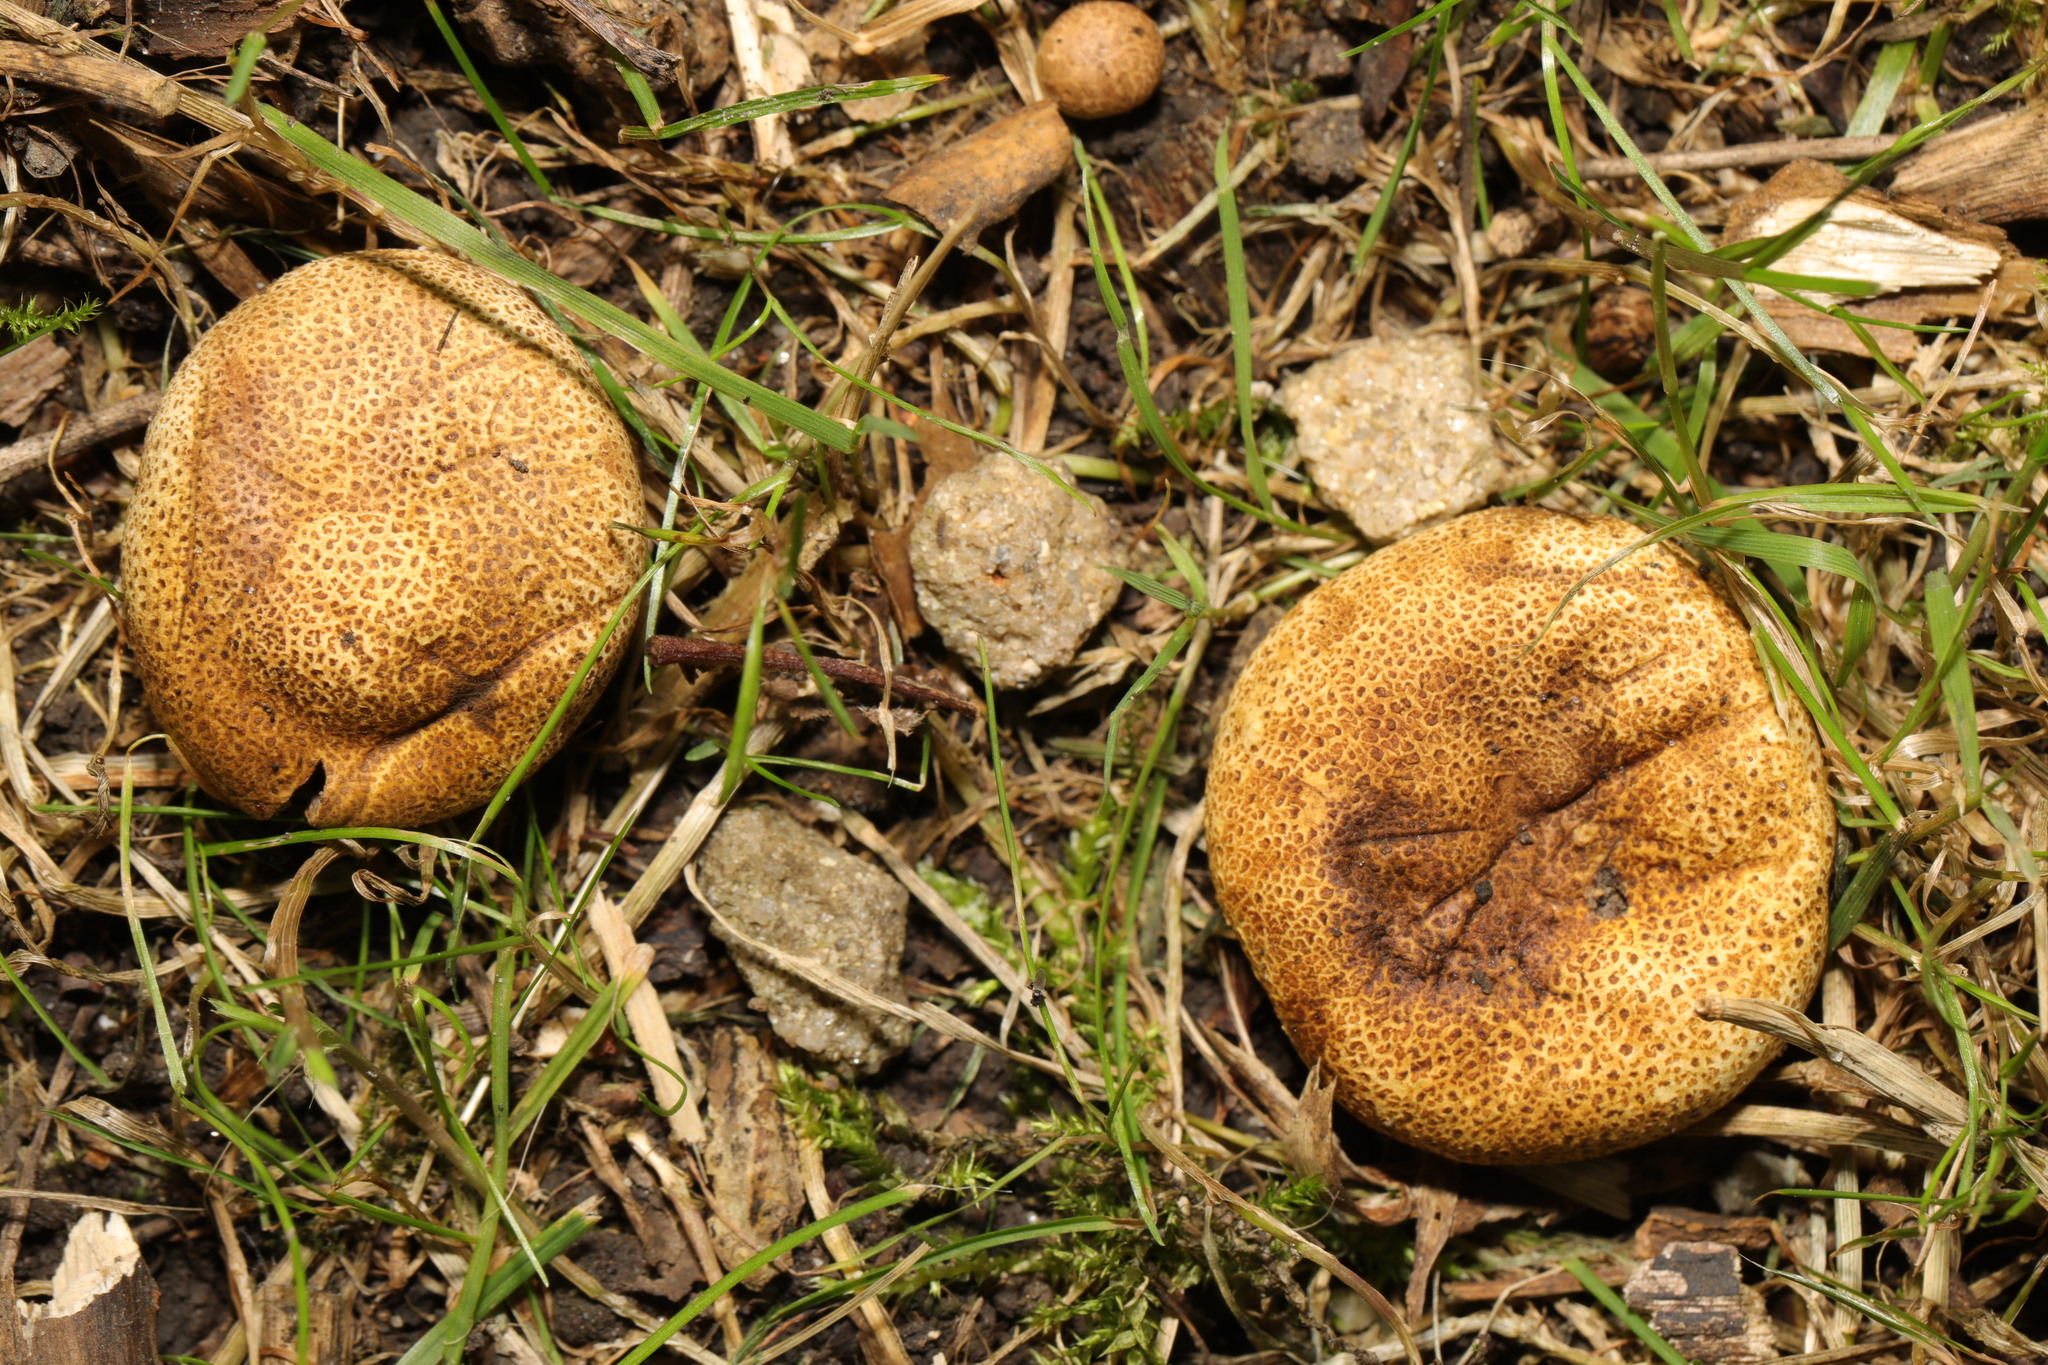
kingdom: Fungi
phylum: Basidiomycota
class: Agaricomycetes
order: Boletales
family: Sclerodermataceae
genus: Scleroderma
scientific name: Scleroderma citrinum
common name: Common earthball
